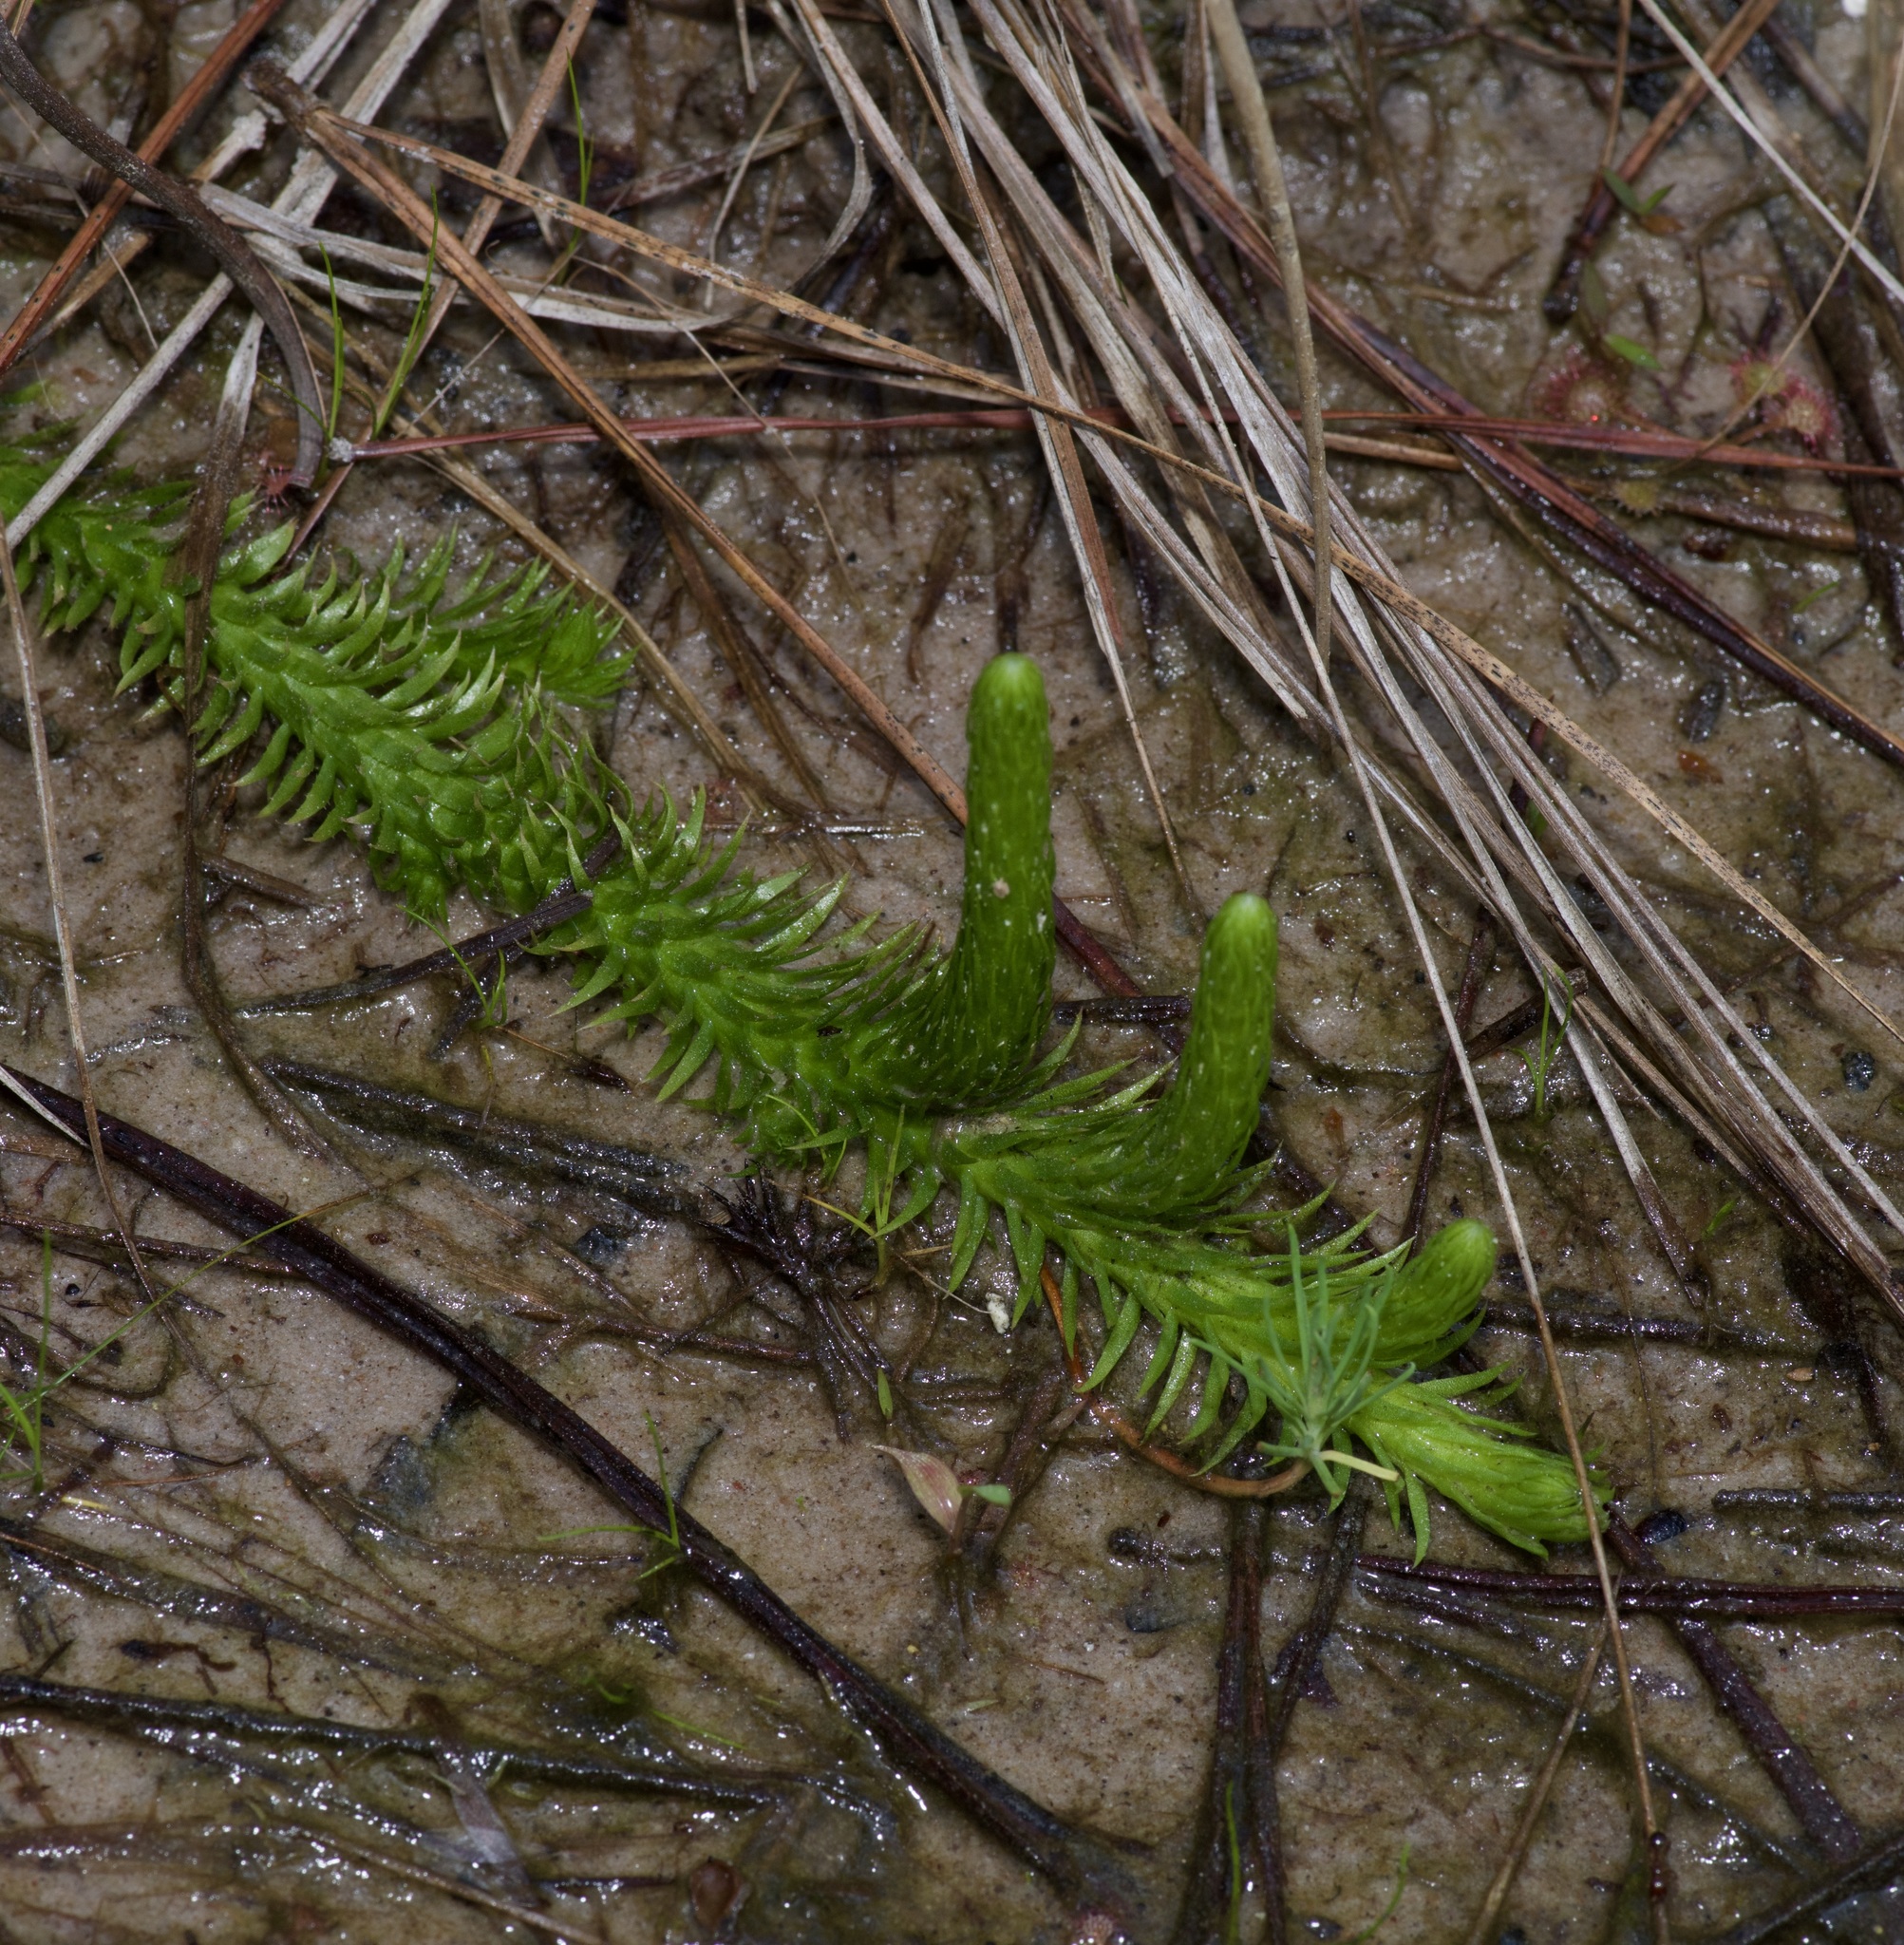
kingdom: Plantae
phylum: Tracheophyta
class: Lycopodiopsida
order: Lycopodiales
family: Lycopodiaceae
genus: Lycopodiella
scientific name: Lycopodiella appressa
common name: Appressed bog clubmoss
